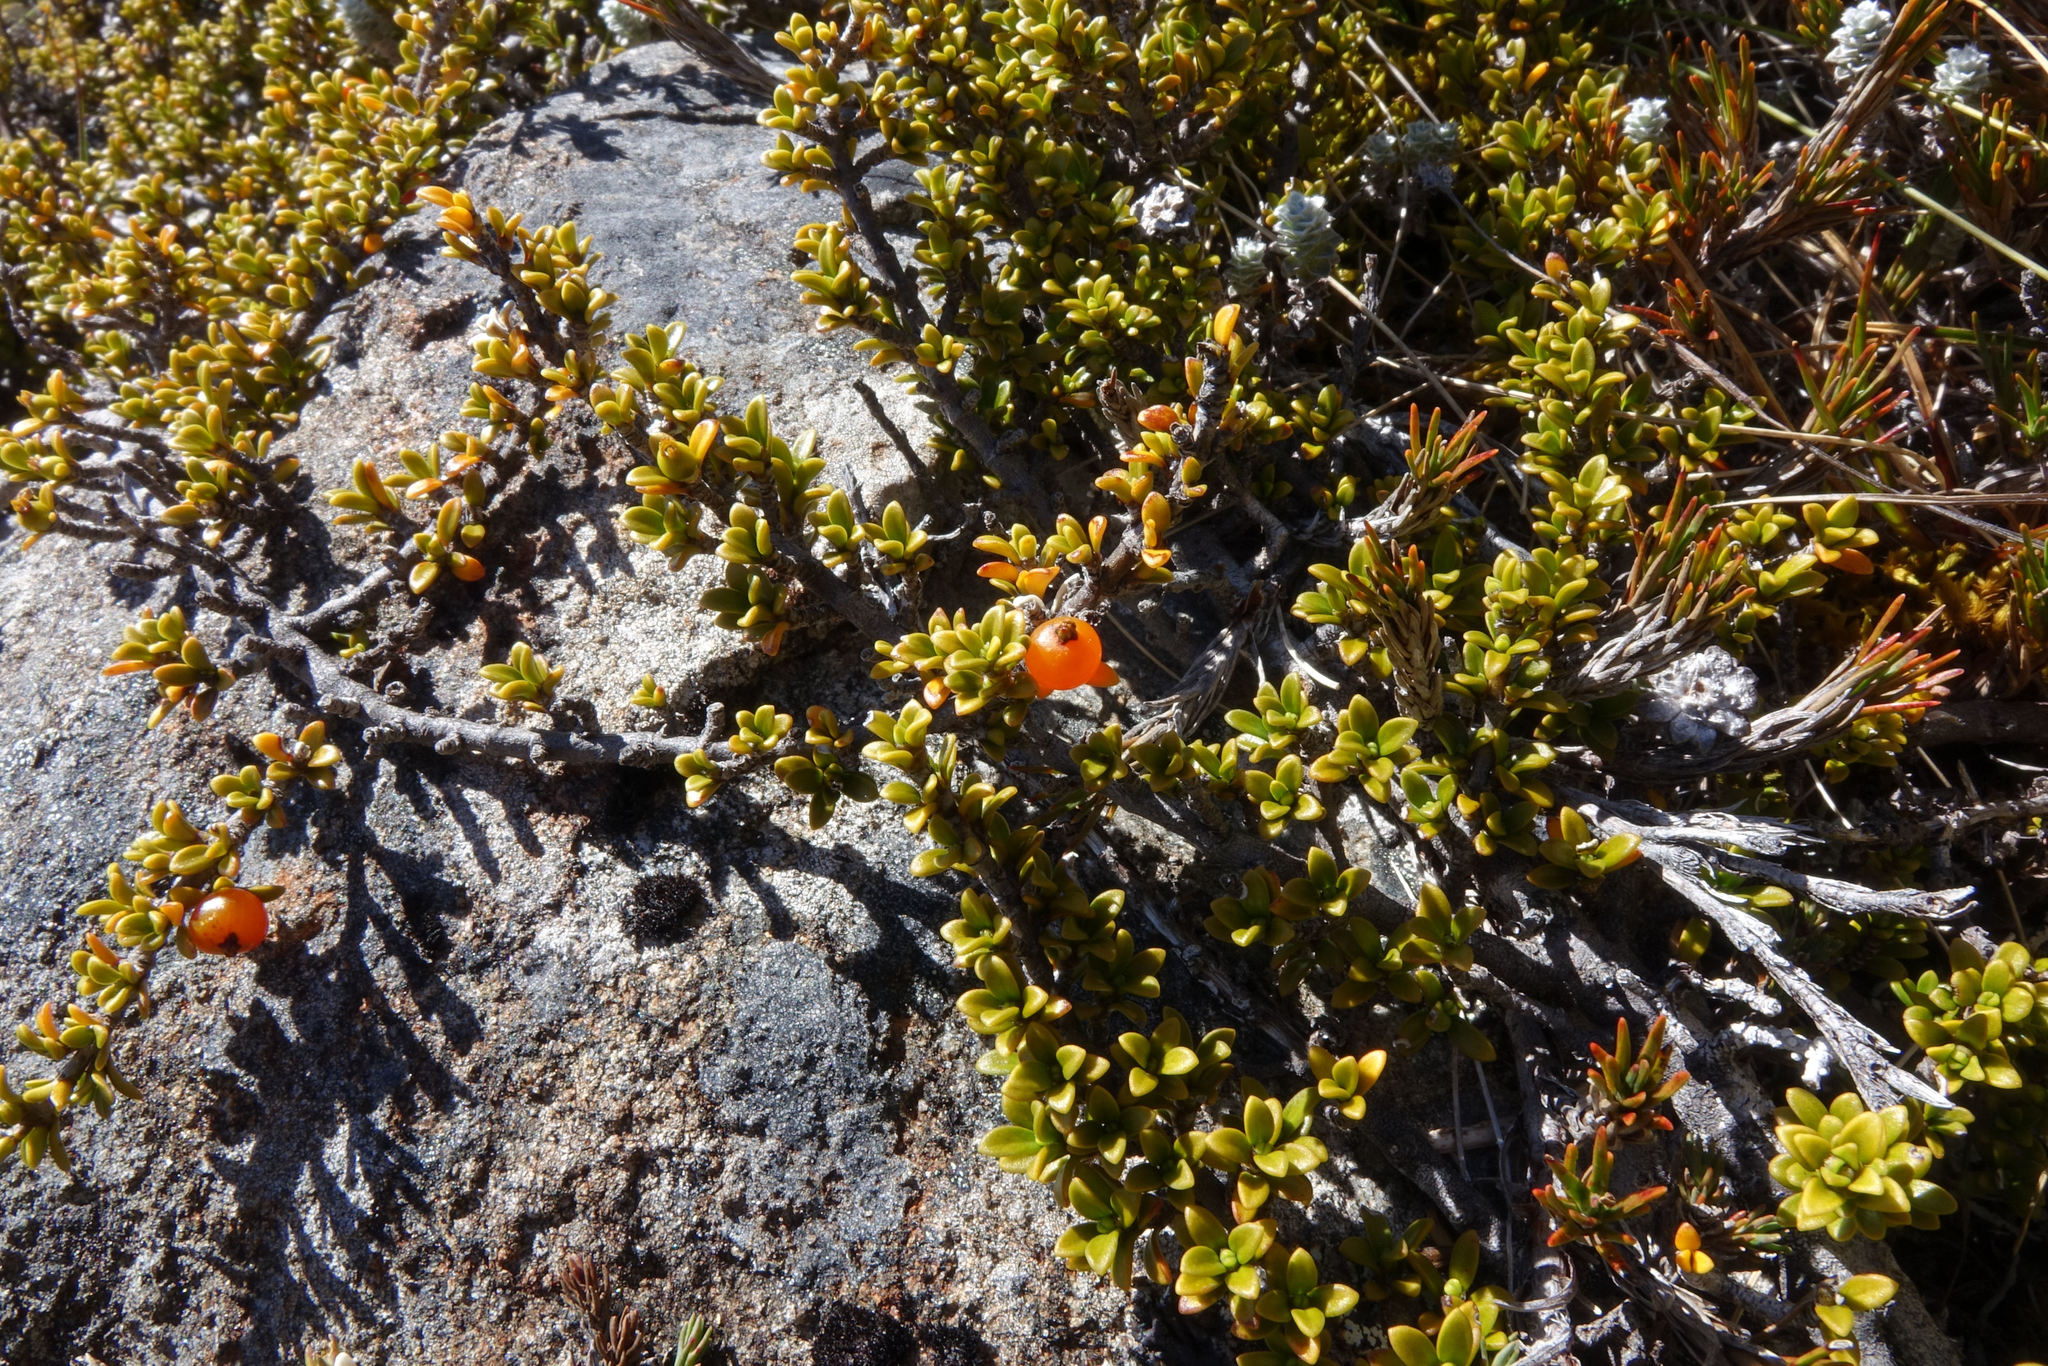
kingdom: Plantae
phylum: Tracheophyta
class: Magnoliopsida
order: Gentianales
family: Rubiaceae
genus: Coprosma
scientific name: Coprosma fowerakeri
